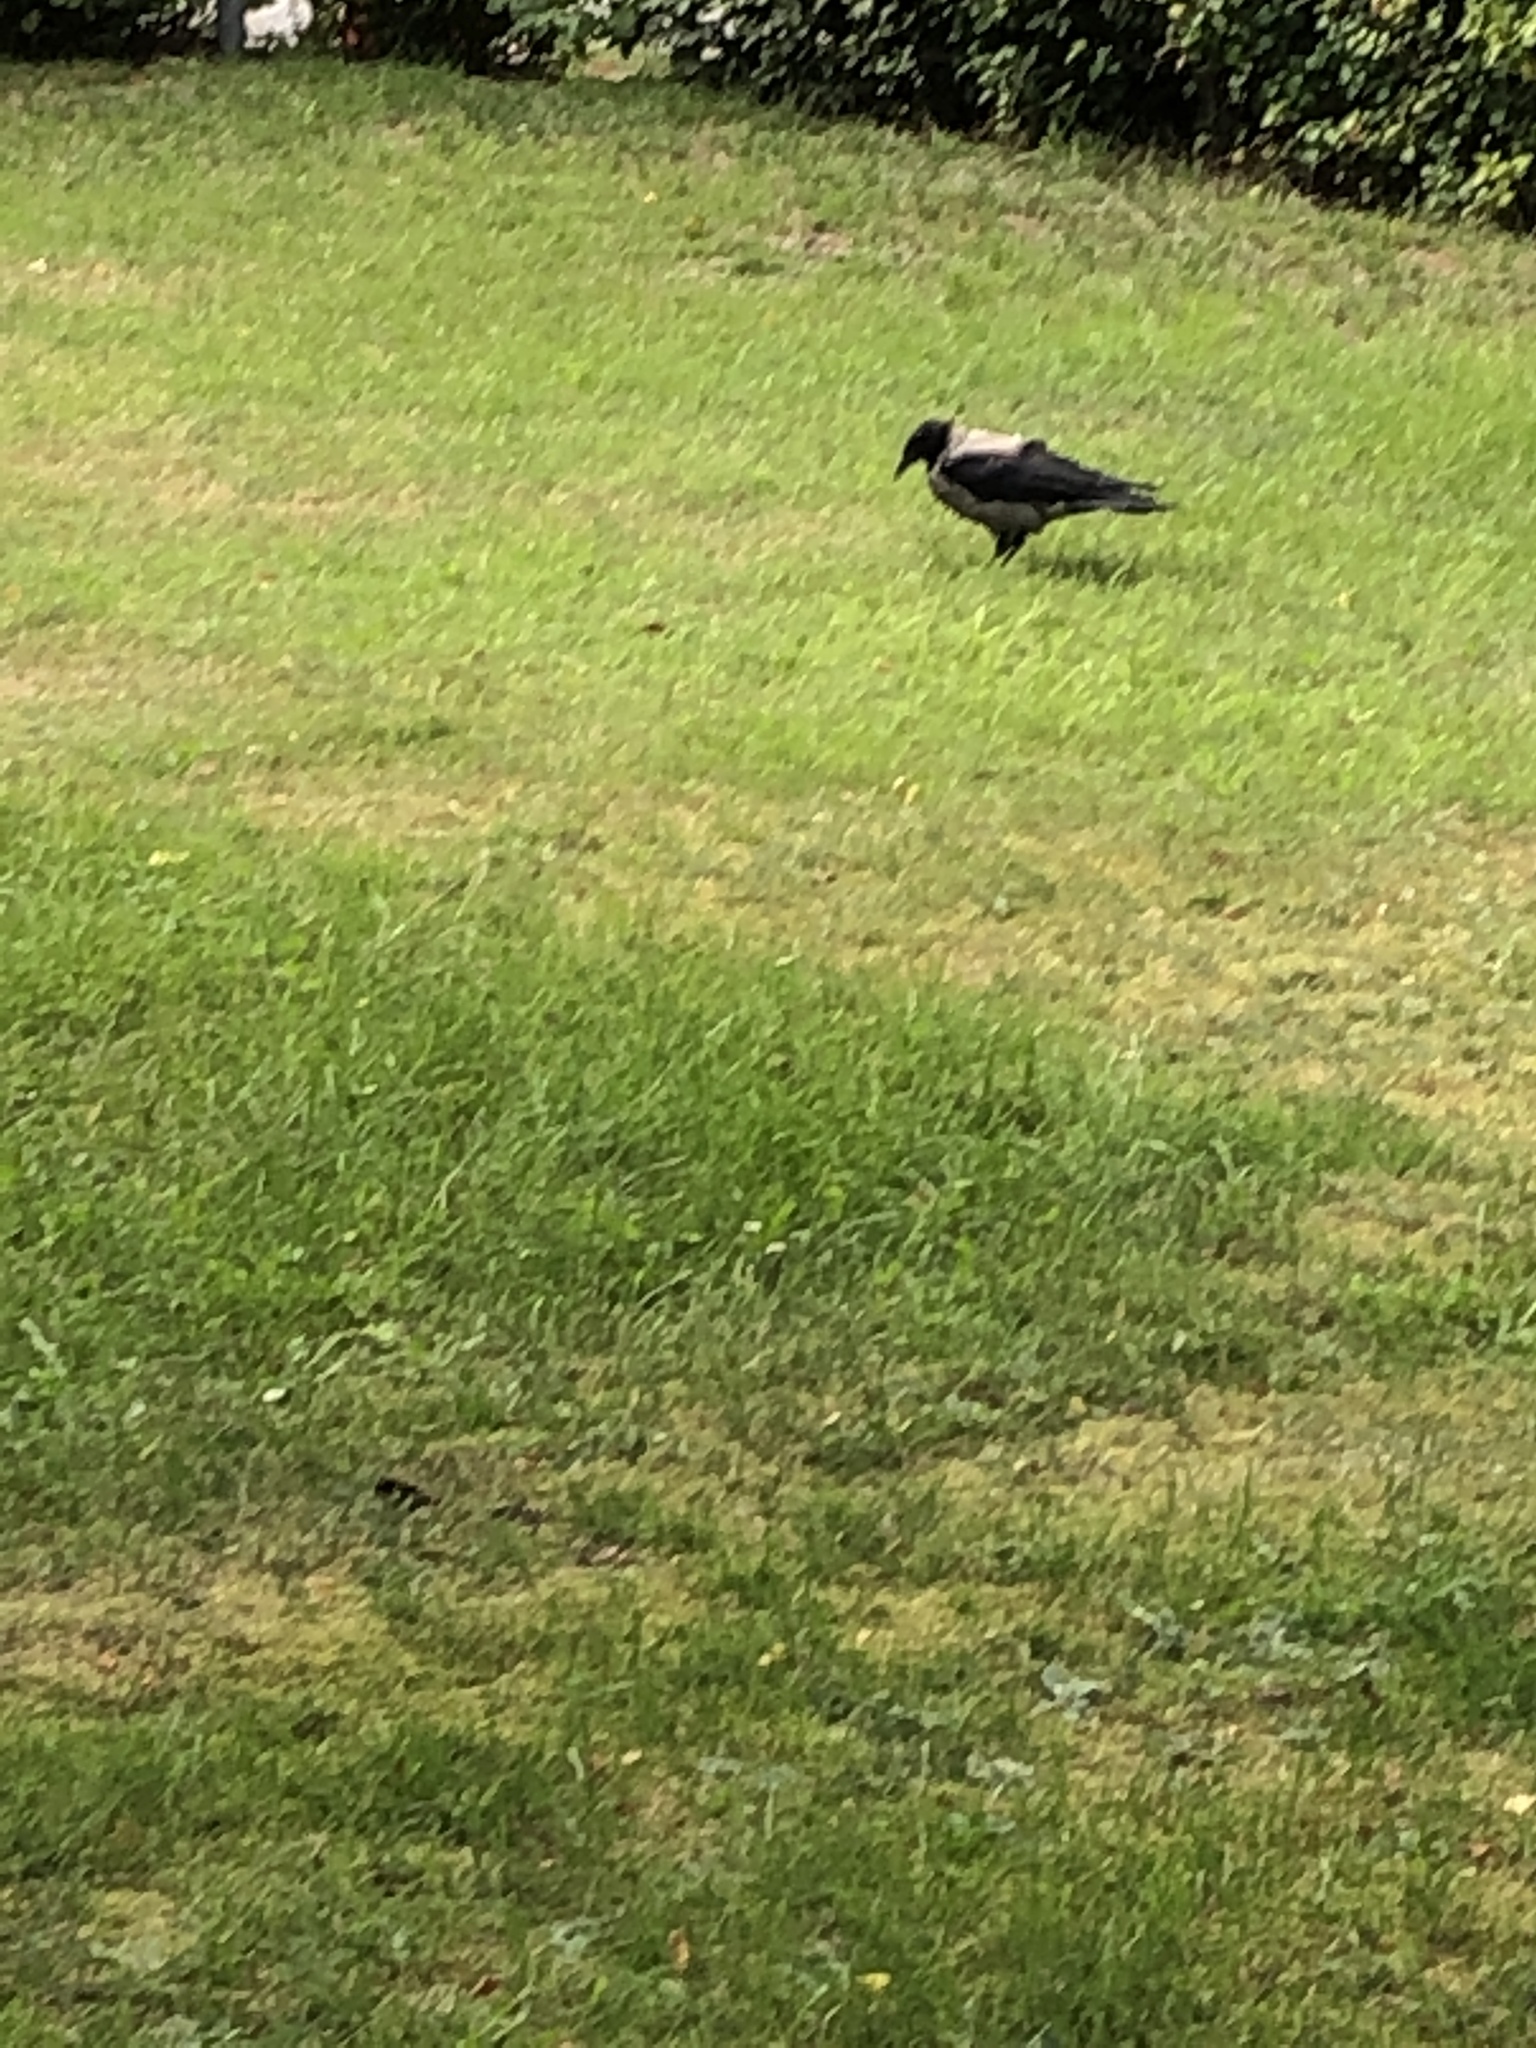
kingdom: Animalia
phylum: Chordata
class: Aves
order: Passeriformes
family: Corvidae
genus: Corvus
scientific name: Corvus cornix
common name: Hooded crow
